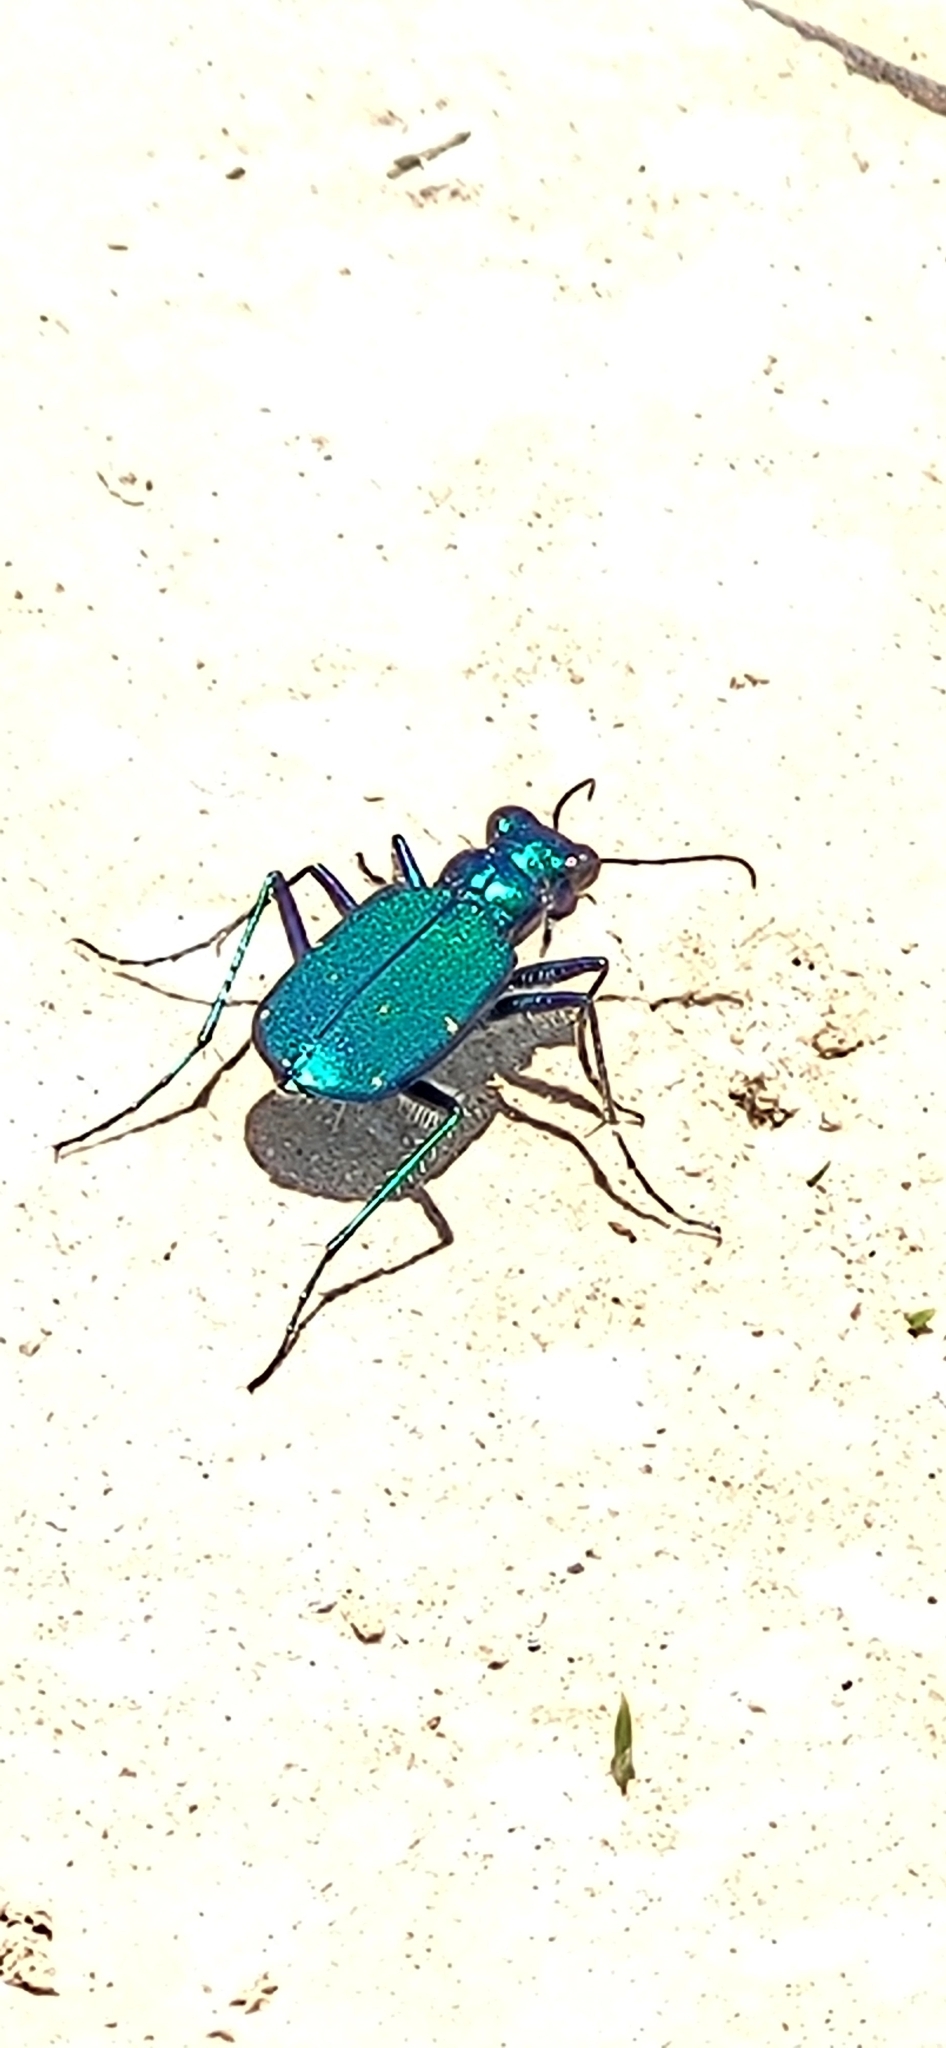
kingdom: Animalia
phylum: Arthropoda
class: Insecta
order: Coleoptera
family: Carabidae
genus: Cicindela
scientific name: Cicindela sexguttata
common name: Six-spotted tiger beetle
